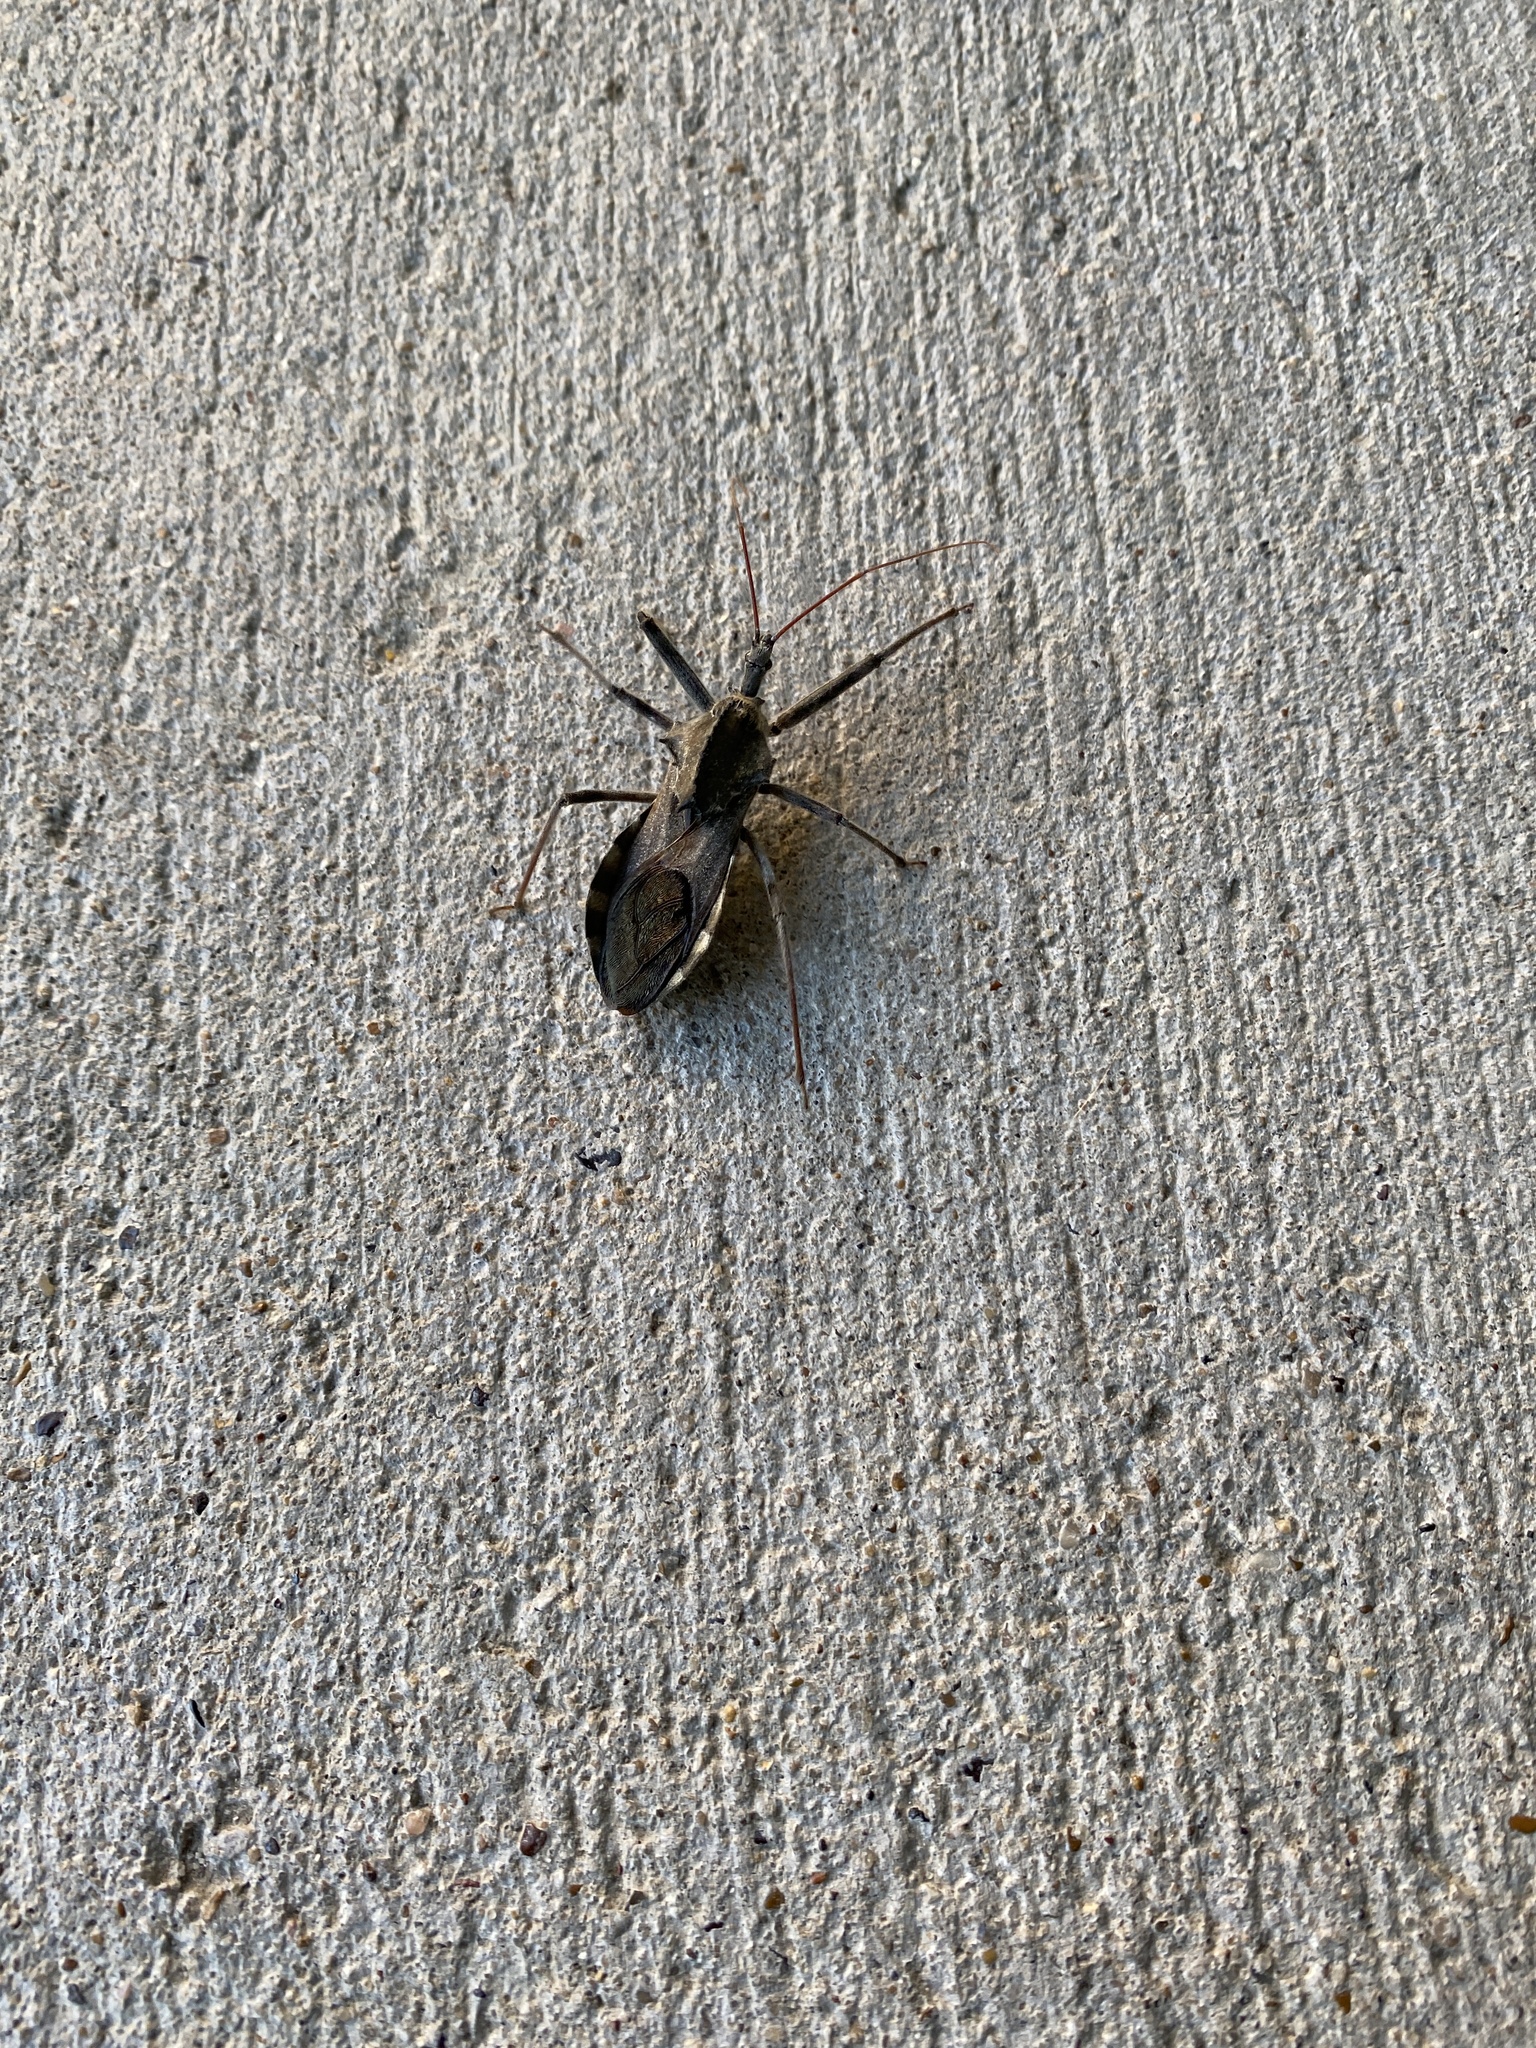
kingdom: Animalia
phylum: Arthropoda
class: Insecta
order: Hemiptera
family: Reduviidae
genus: Arilus
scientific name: Arilus cristatus
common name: North american wheel bug
